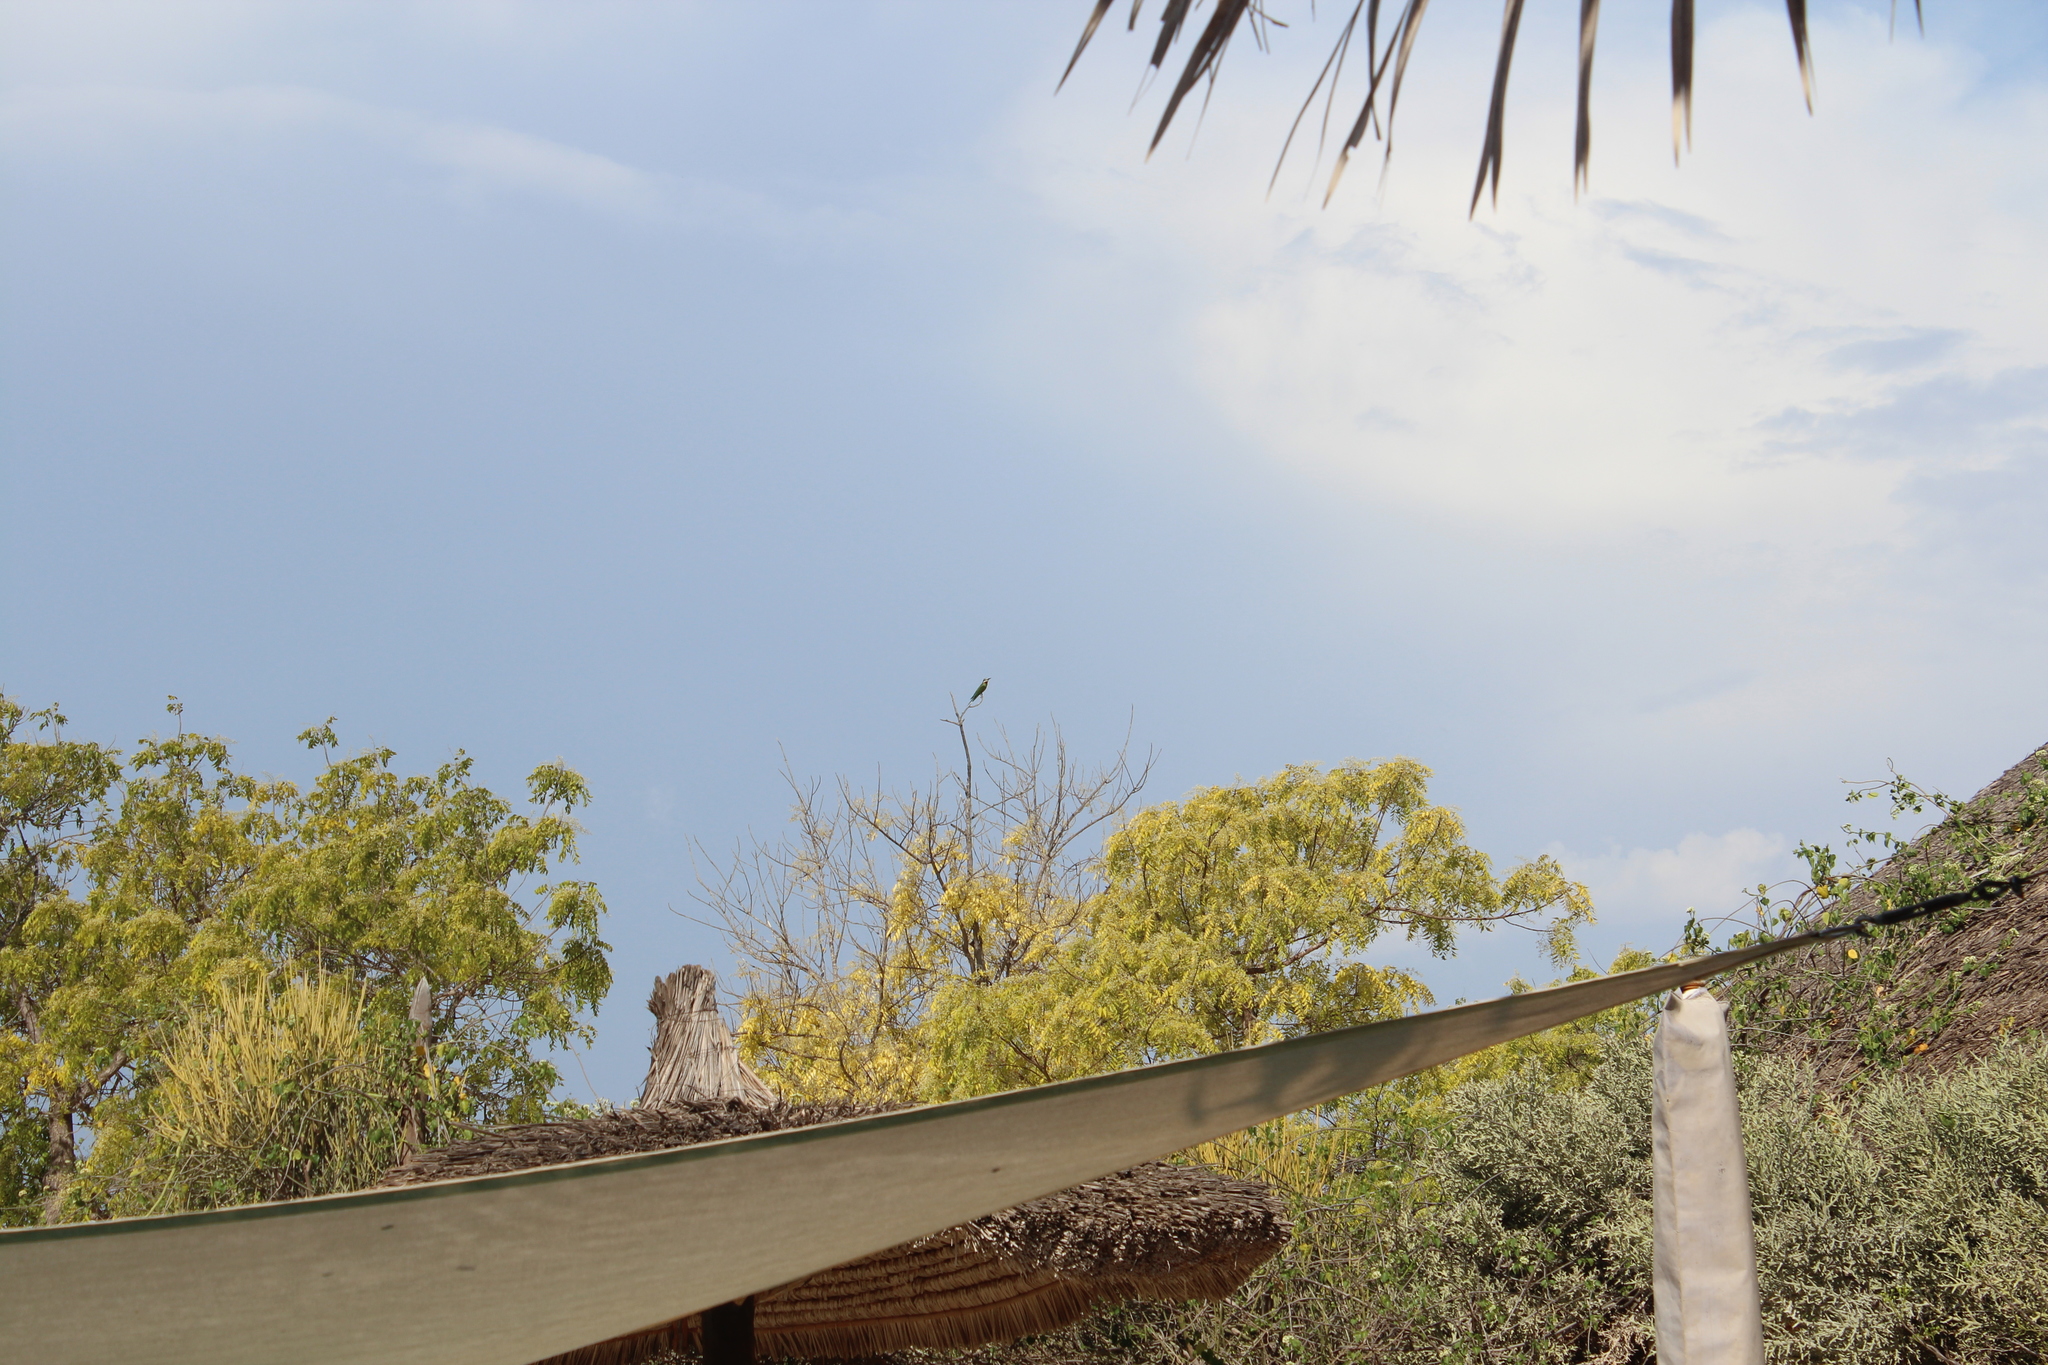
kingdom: Animalia
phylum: Chordata
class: Aves
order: Coraciiformes
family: Meropidae
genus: Merops
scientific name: Merops superciliosus
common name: Olive bee-eater
